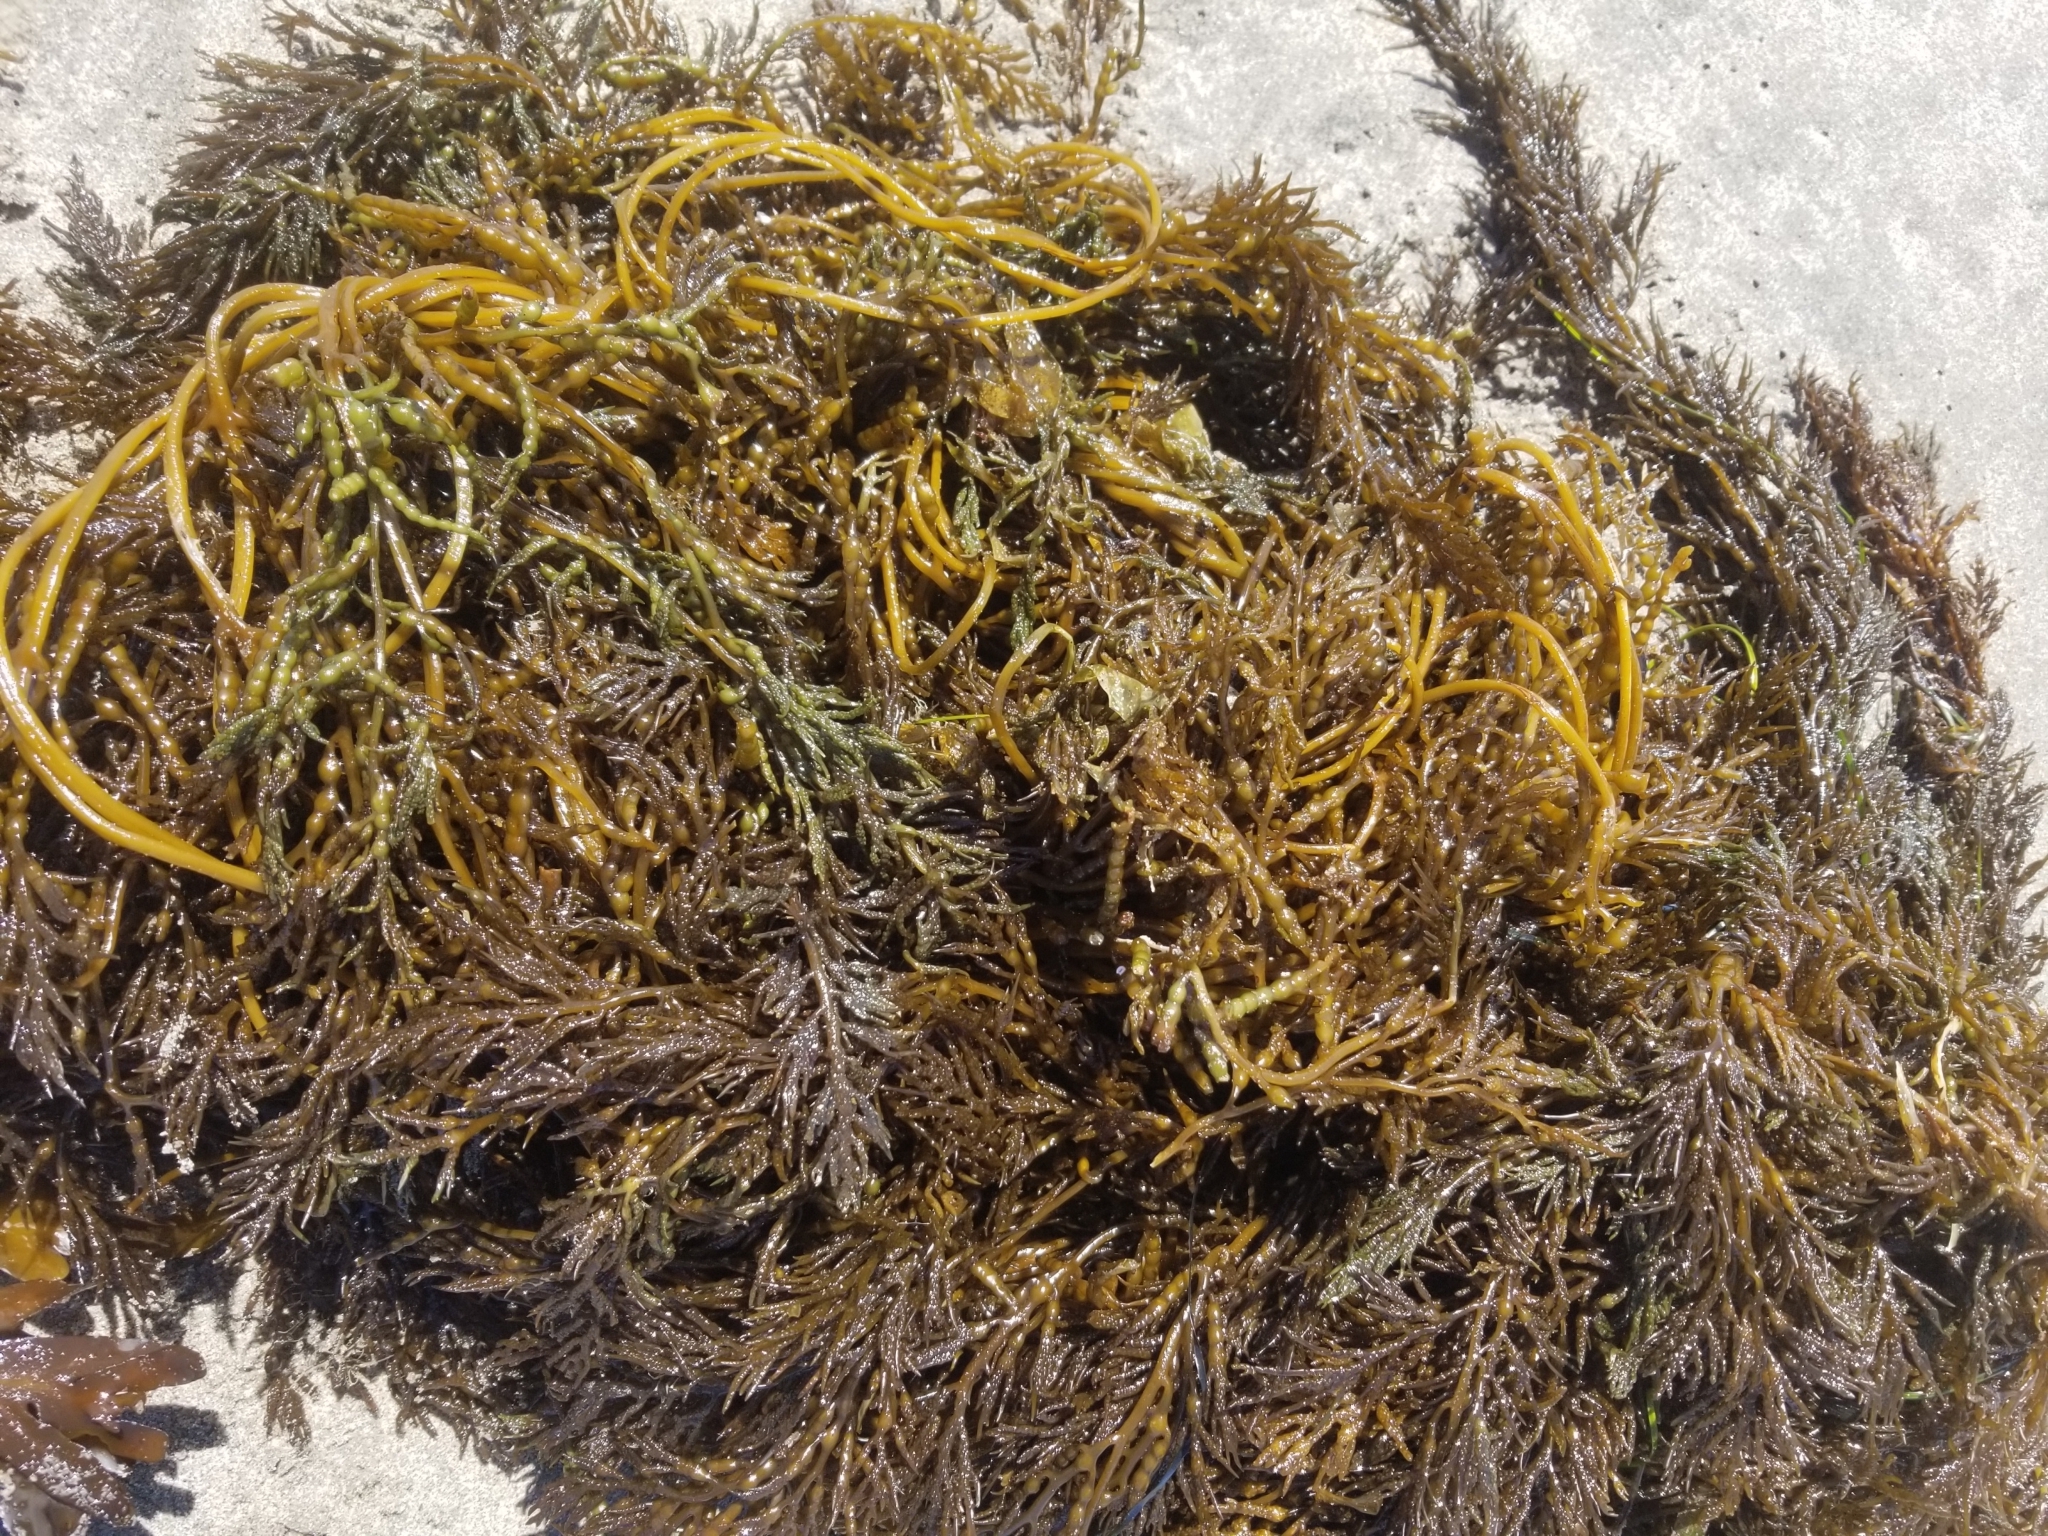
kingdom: Chromista
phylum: Ochrophyta
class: Phaeophyceae
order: Fucales
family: Sargassaceae
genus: Stephanocystis
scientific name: Stephanocystis
